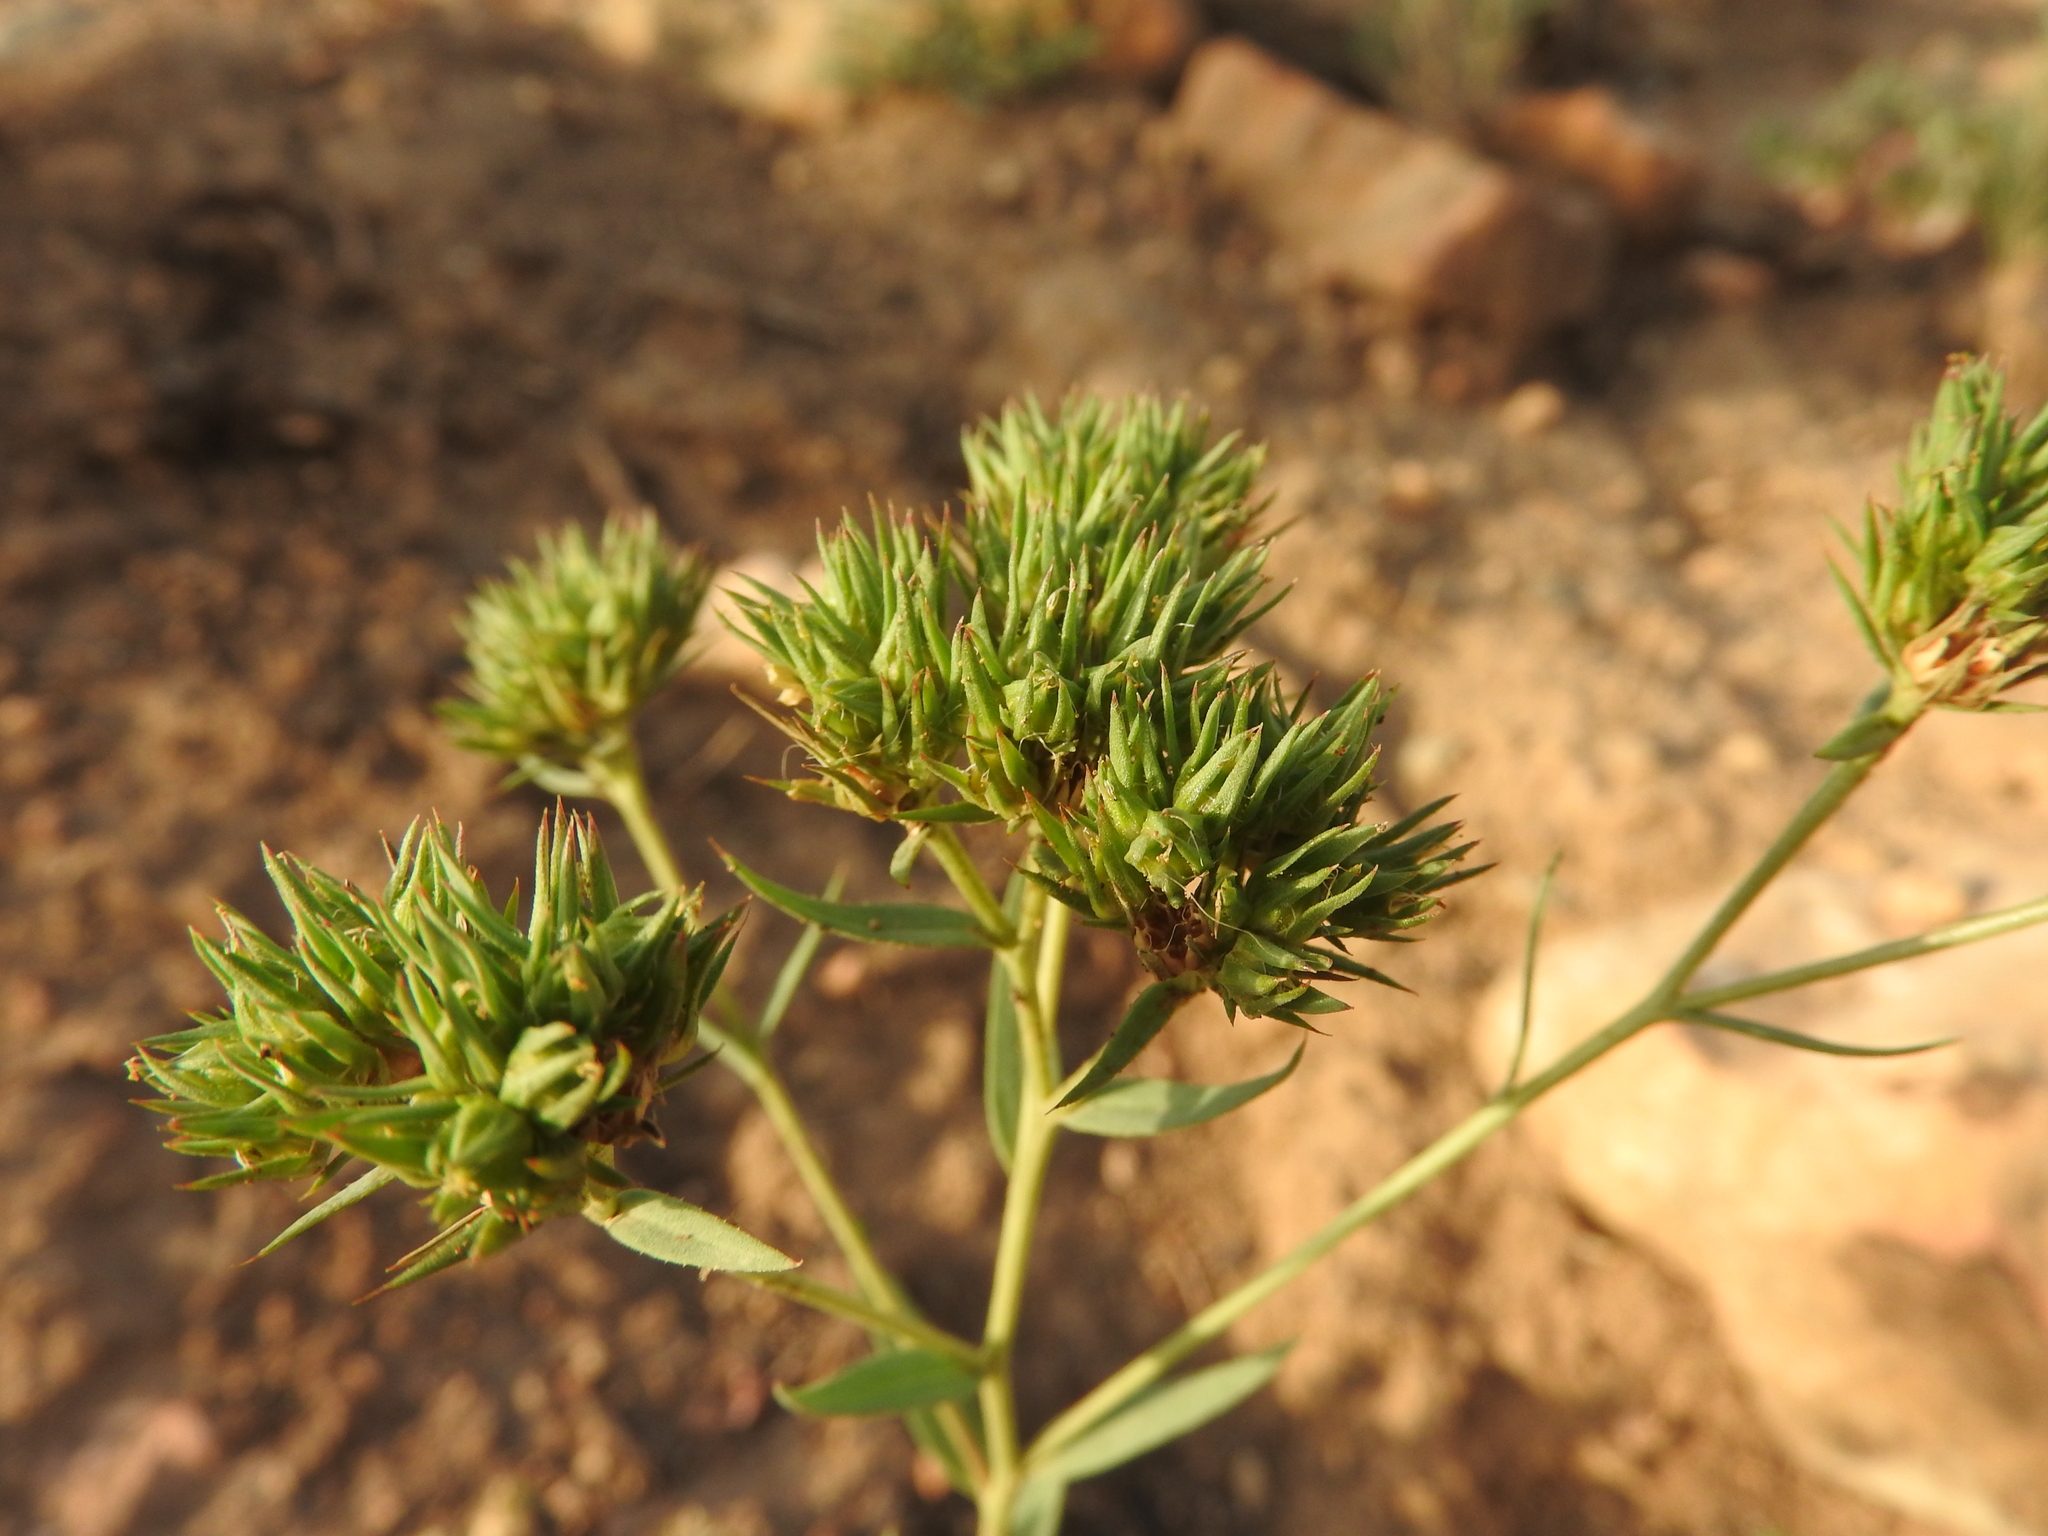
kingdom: Plantae
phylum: Tracheophyta
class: Magnoliopsida
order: Malpighiales
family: Linaceae
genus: Linum
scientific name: Linum strictum
